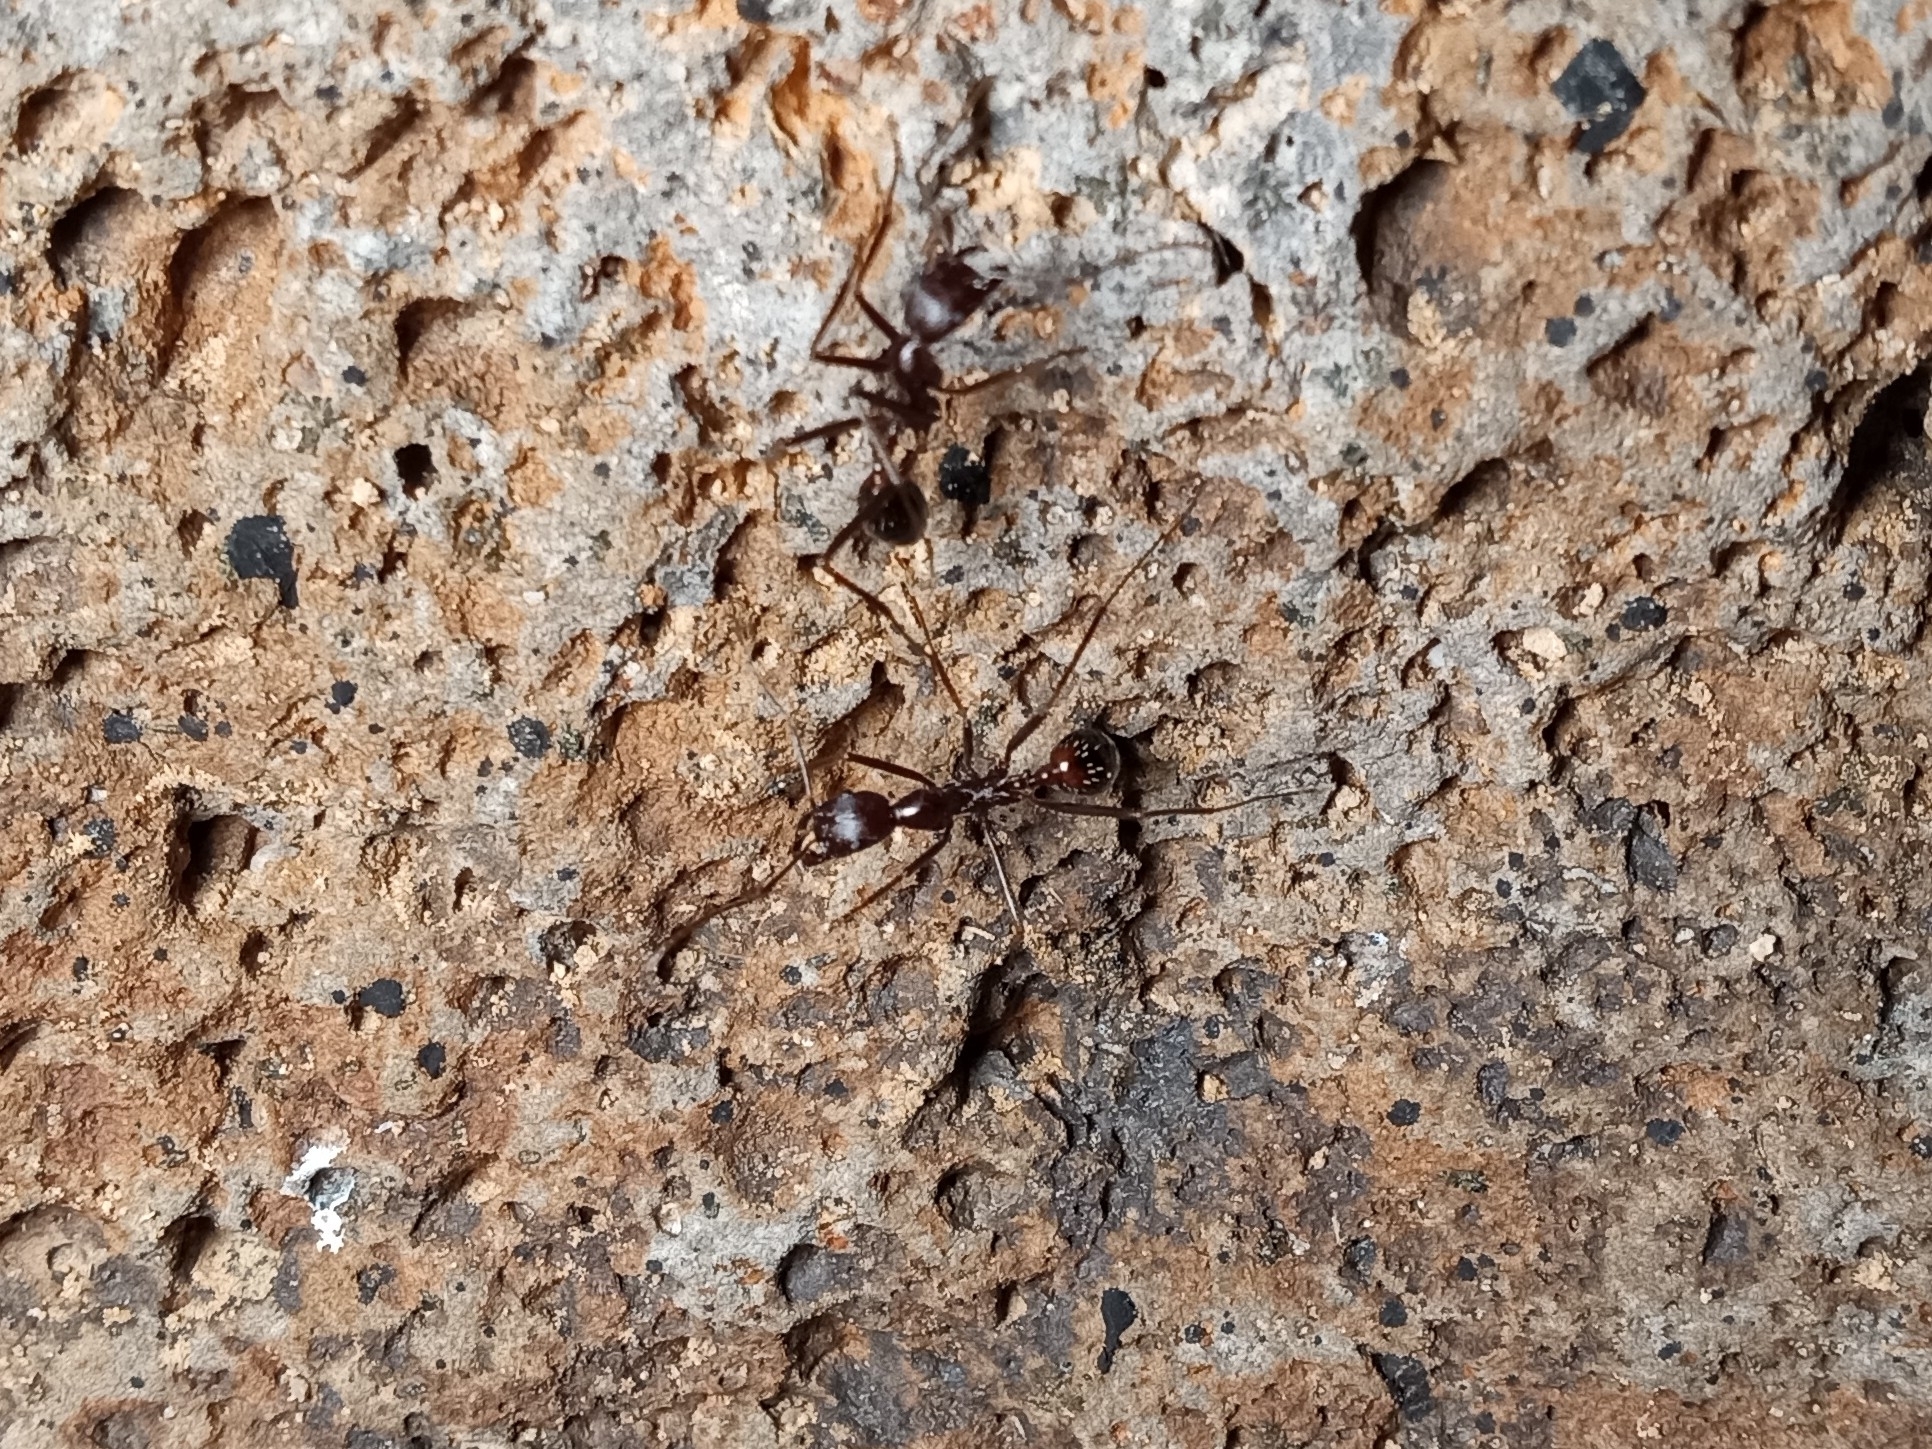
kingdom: Animalia
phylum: Arthropoda
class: Insecta
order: Hymenoptera
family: Formicidae
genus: Novomessor
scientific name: Novomessor cockerelli
